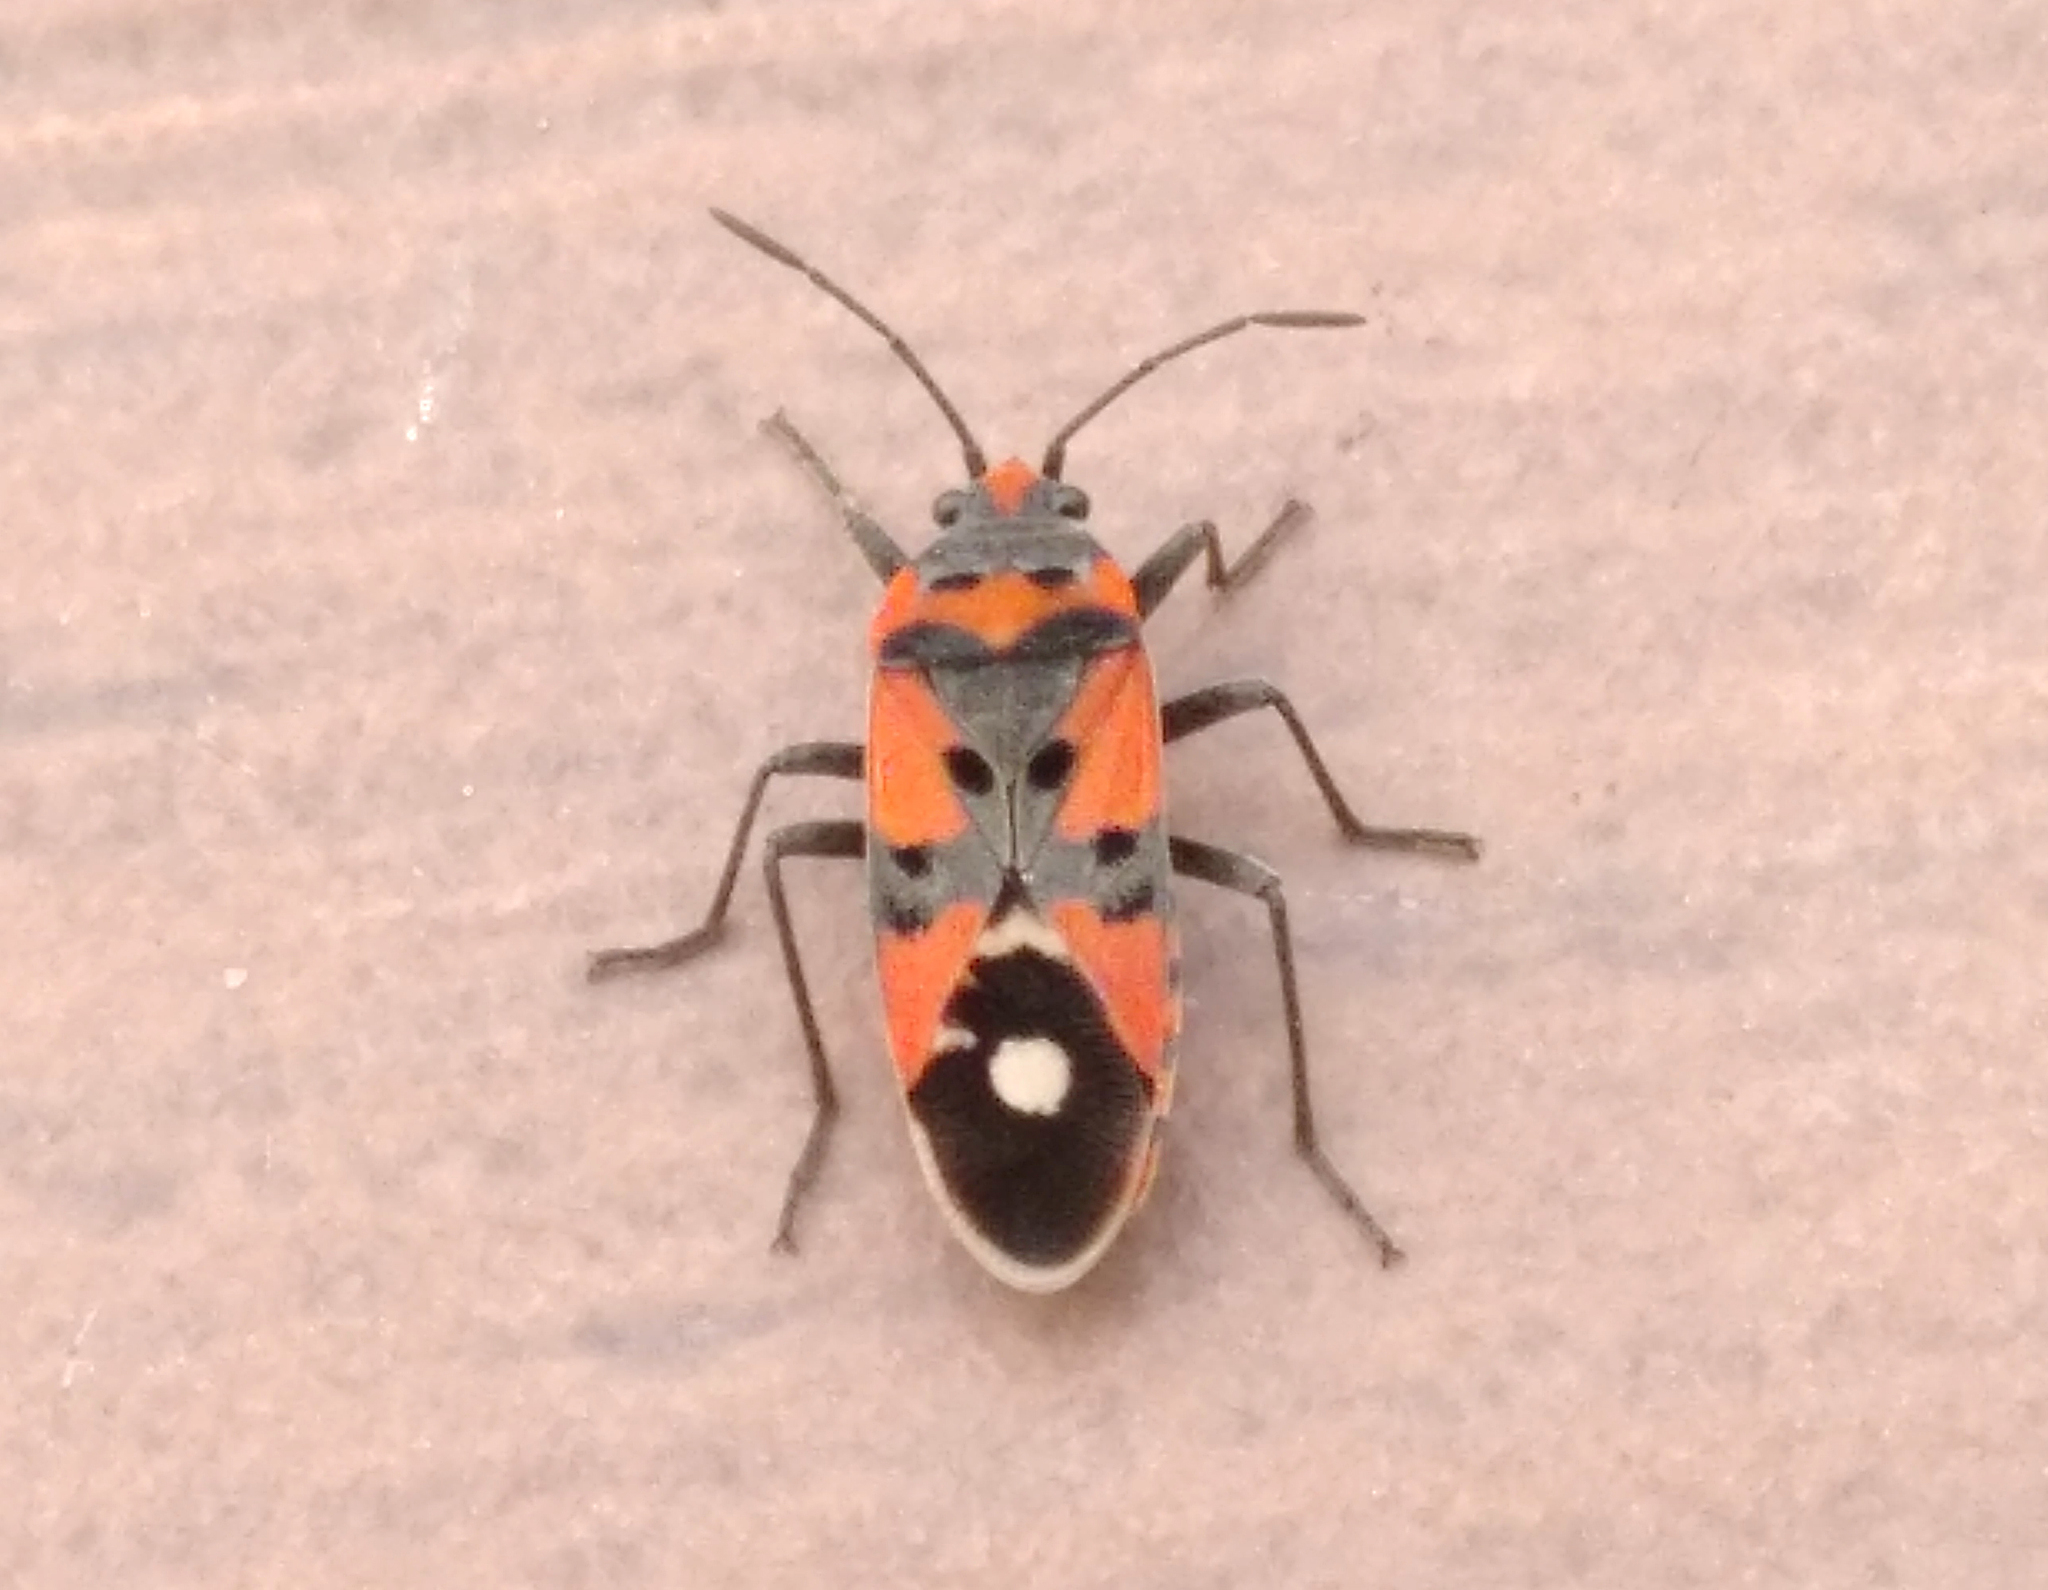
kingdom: Animalia
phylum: Arthropoda
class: Insecta
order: Hemiptera
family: Lygaeidae
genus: Lygaeus
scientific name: Lygaeus equestris
